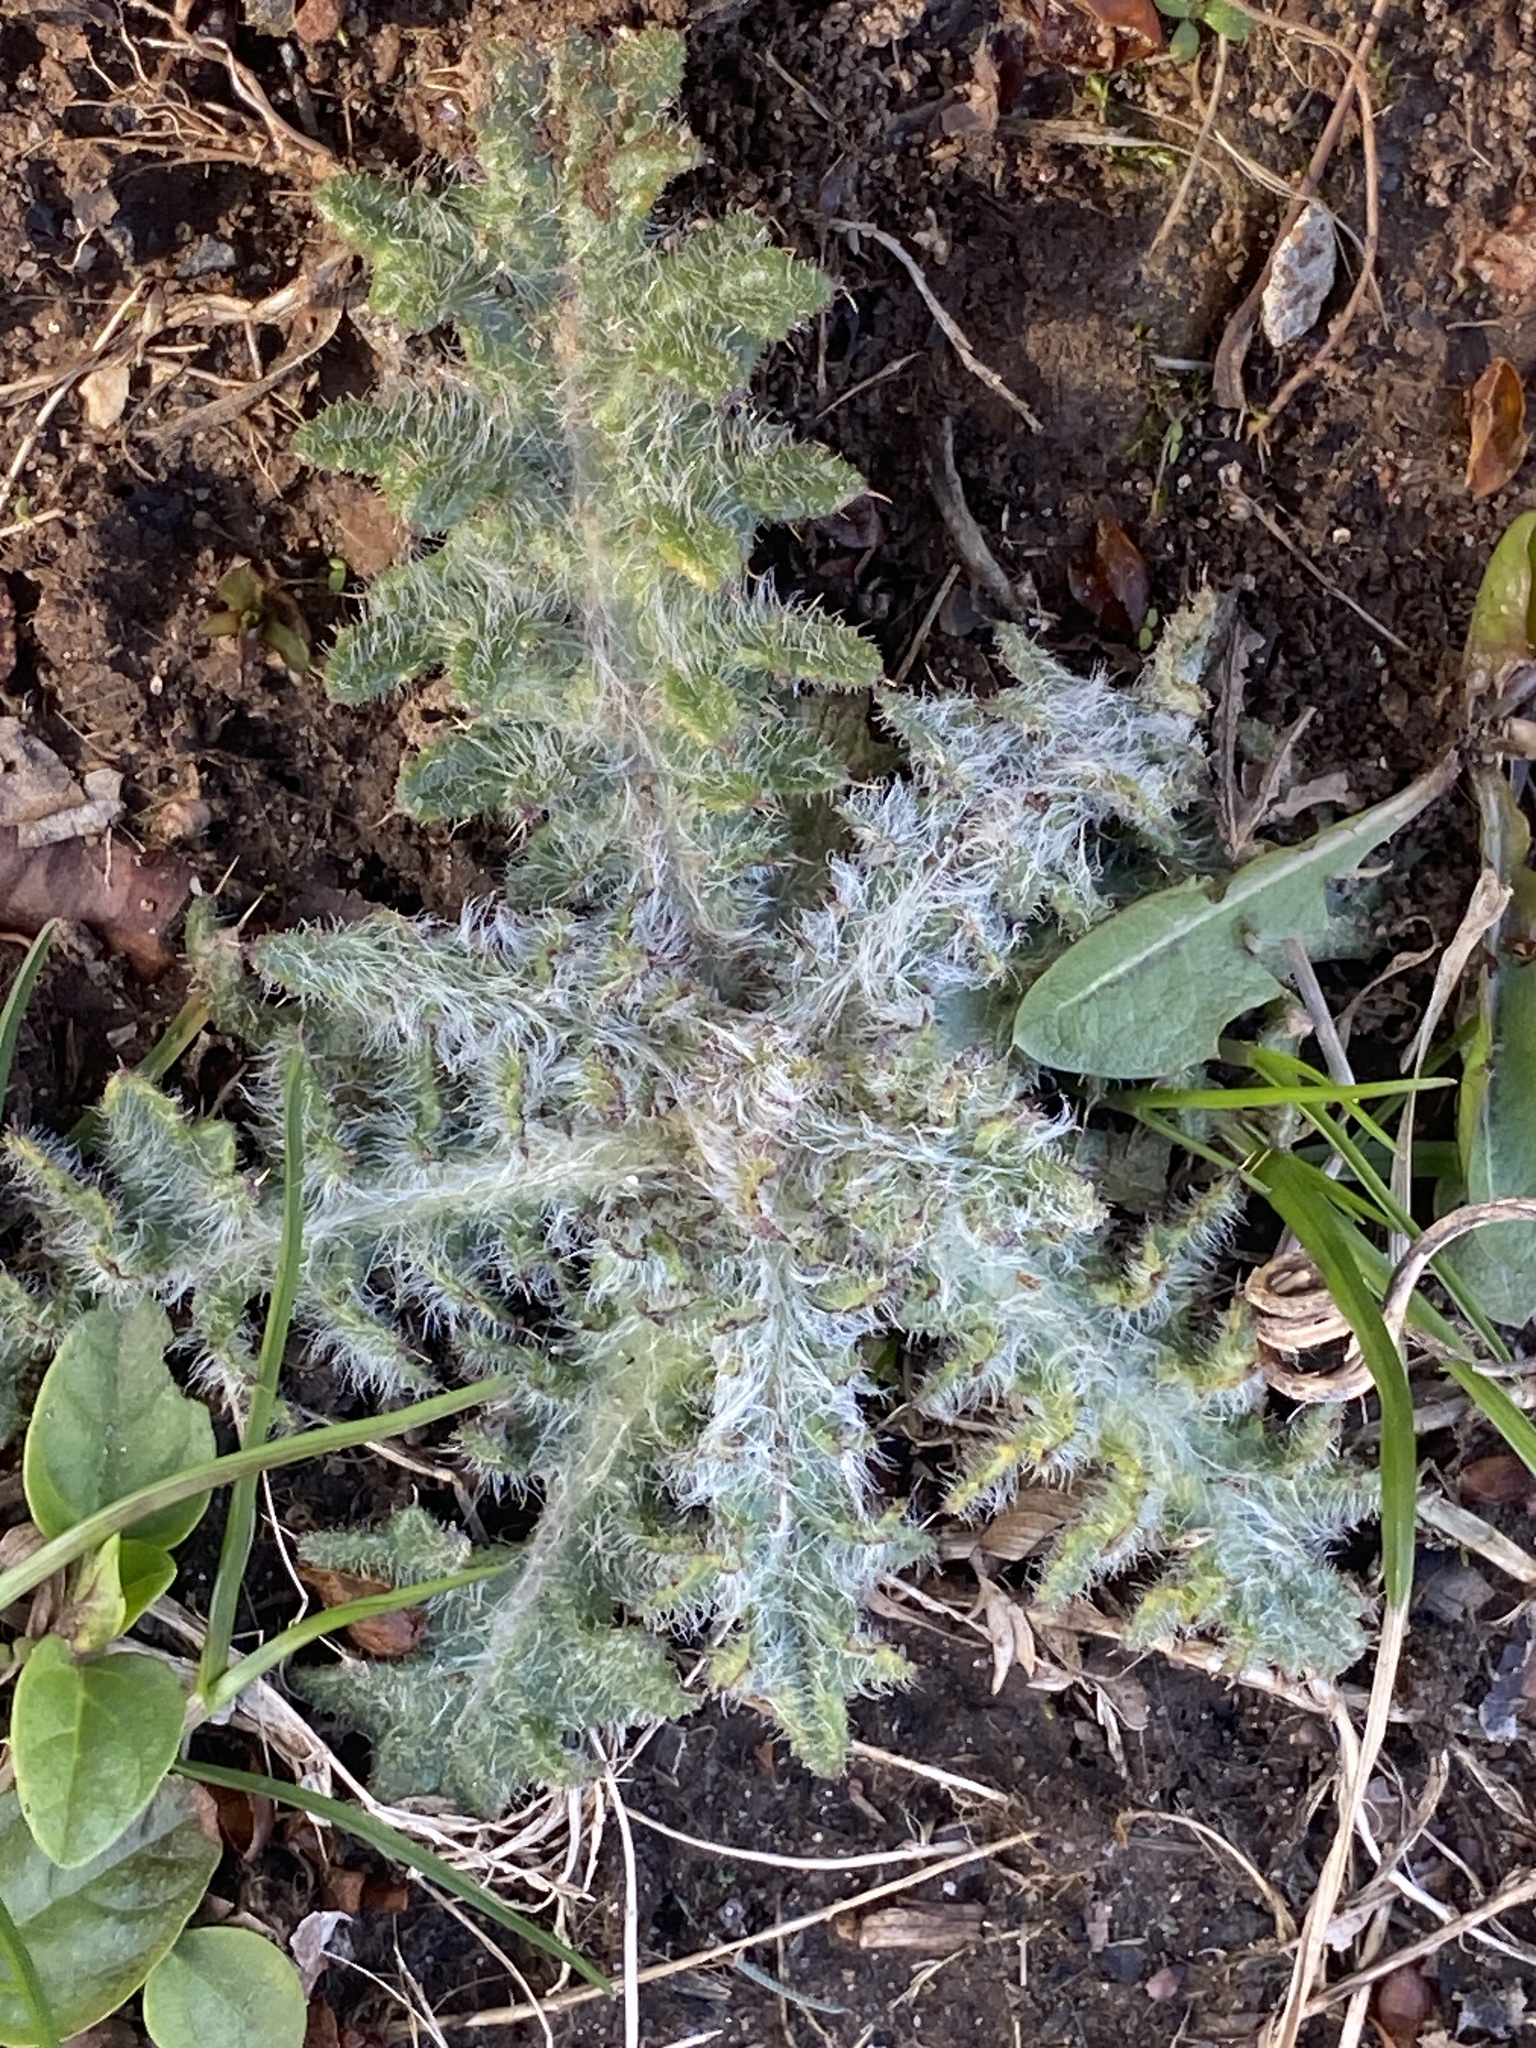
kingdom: Plantae
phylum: Tracheophyta
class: Magnoliopsida
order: Asterales
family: Asteraceae
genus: Cirsium
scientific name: Cirsium vulgare
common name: Bull thistle
